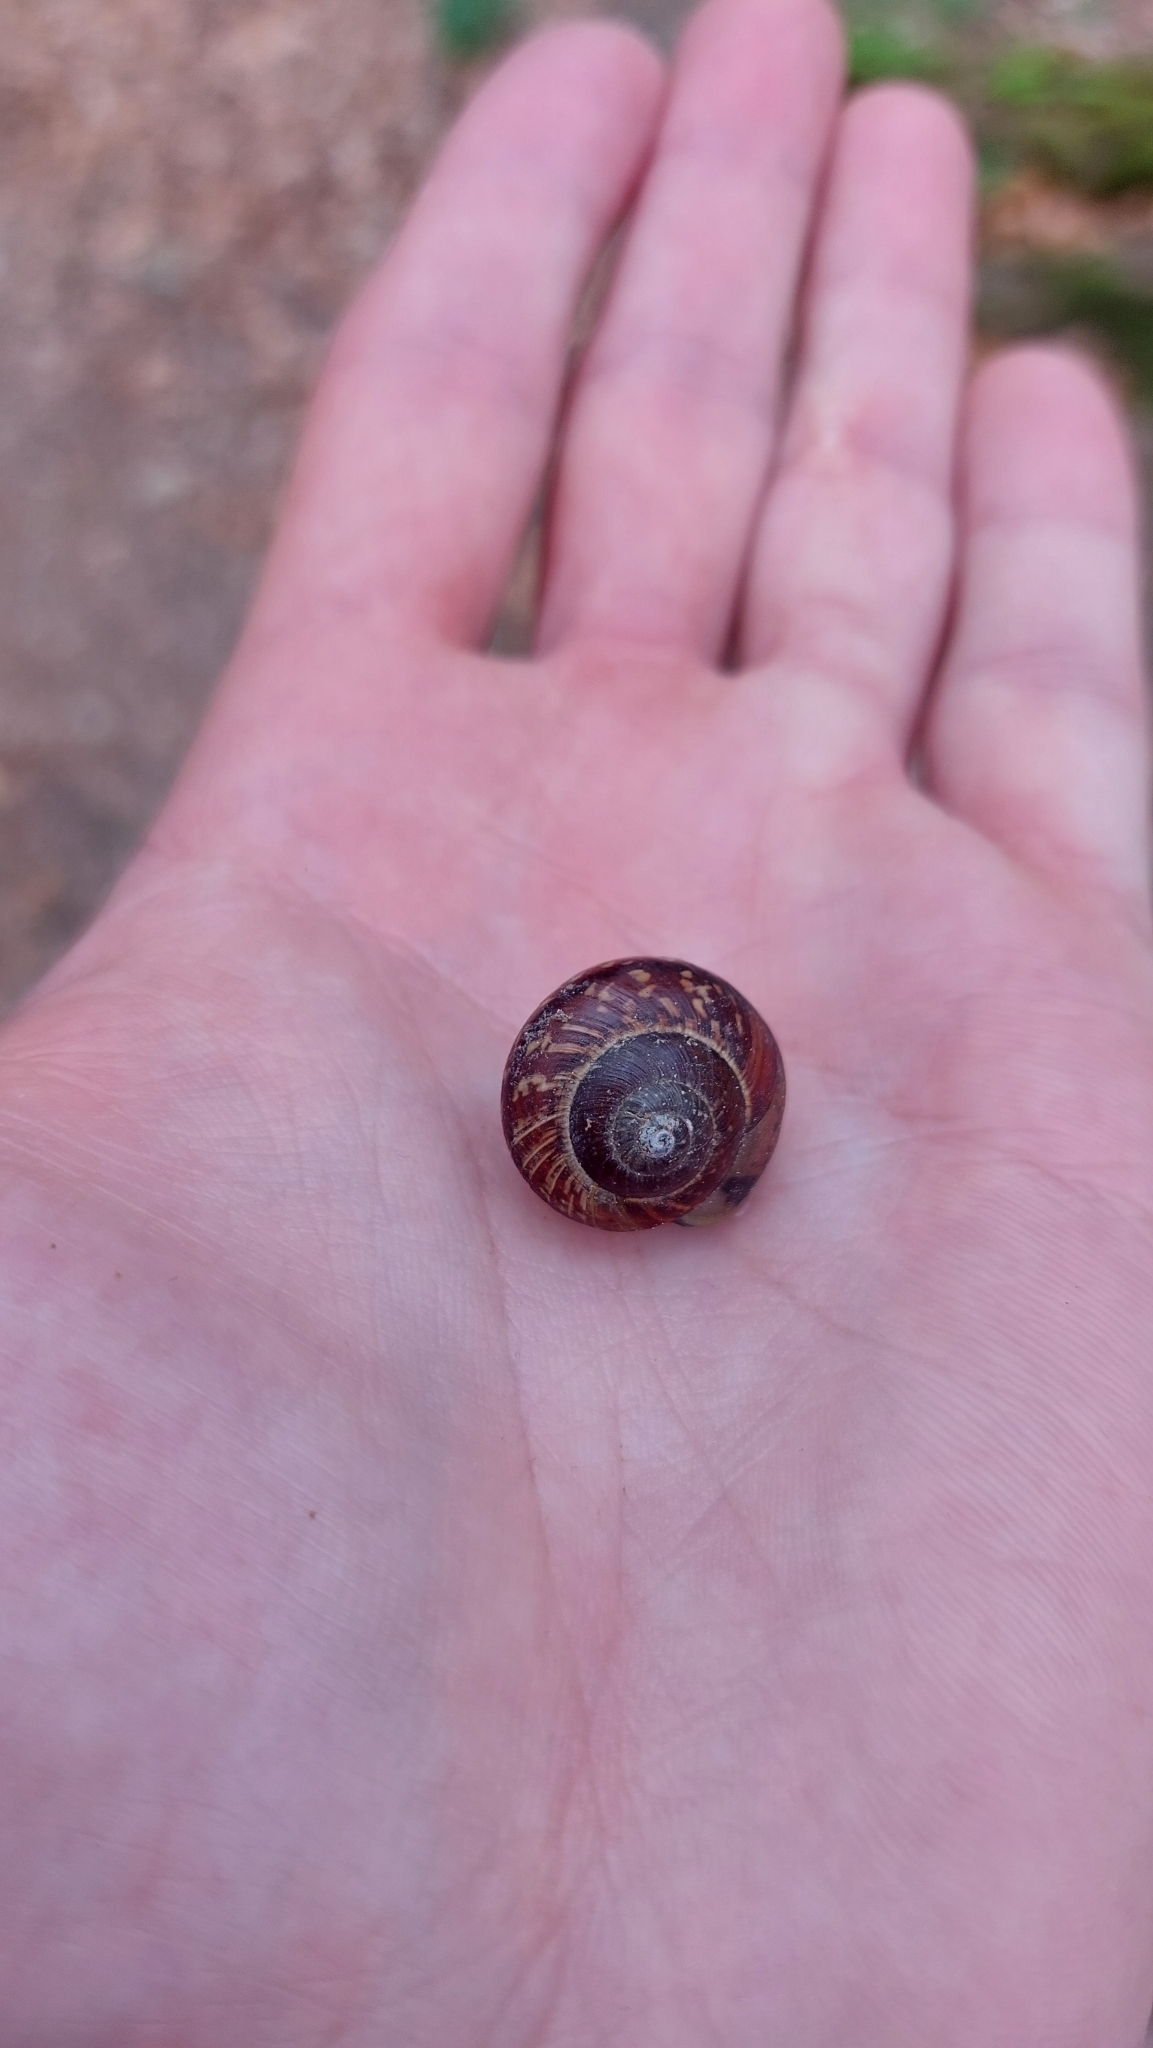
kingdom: Animalia
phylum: Mollusca
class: Gastropoda
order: Stylommatophora
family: Helicidae
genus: Arianta
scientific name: Arianta arbustorum
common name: Copse snail
